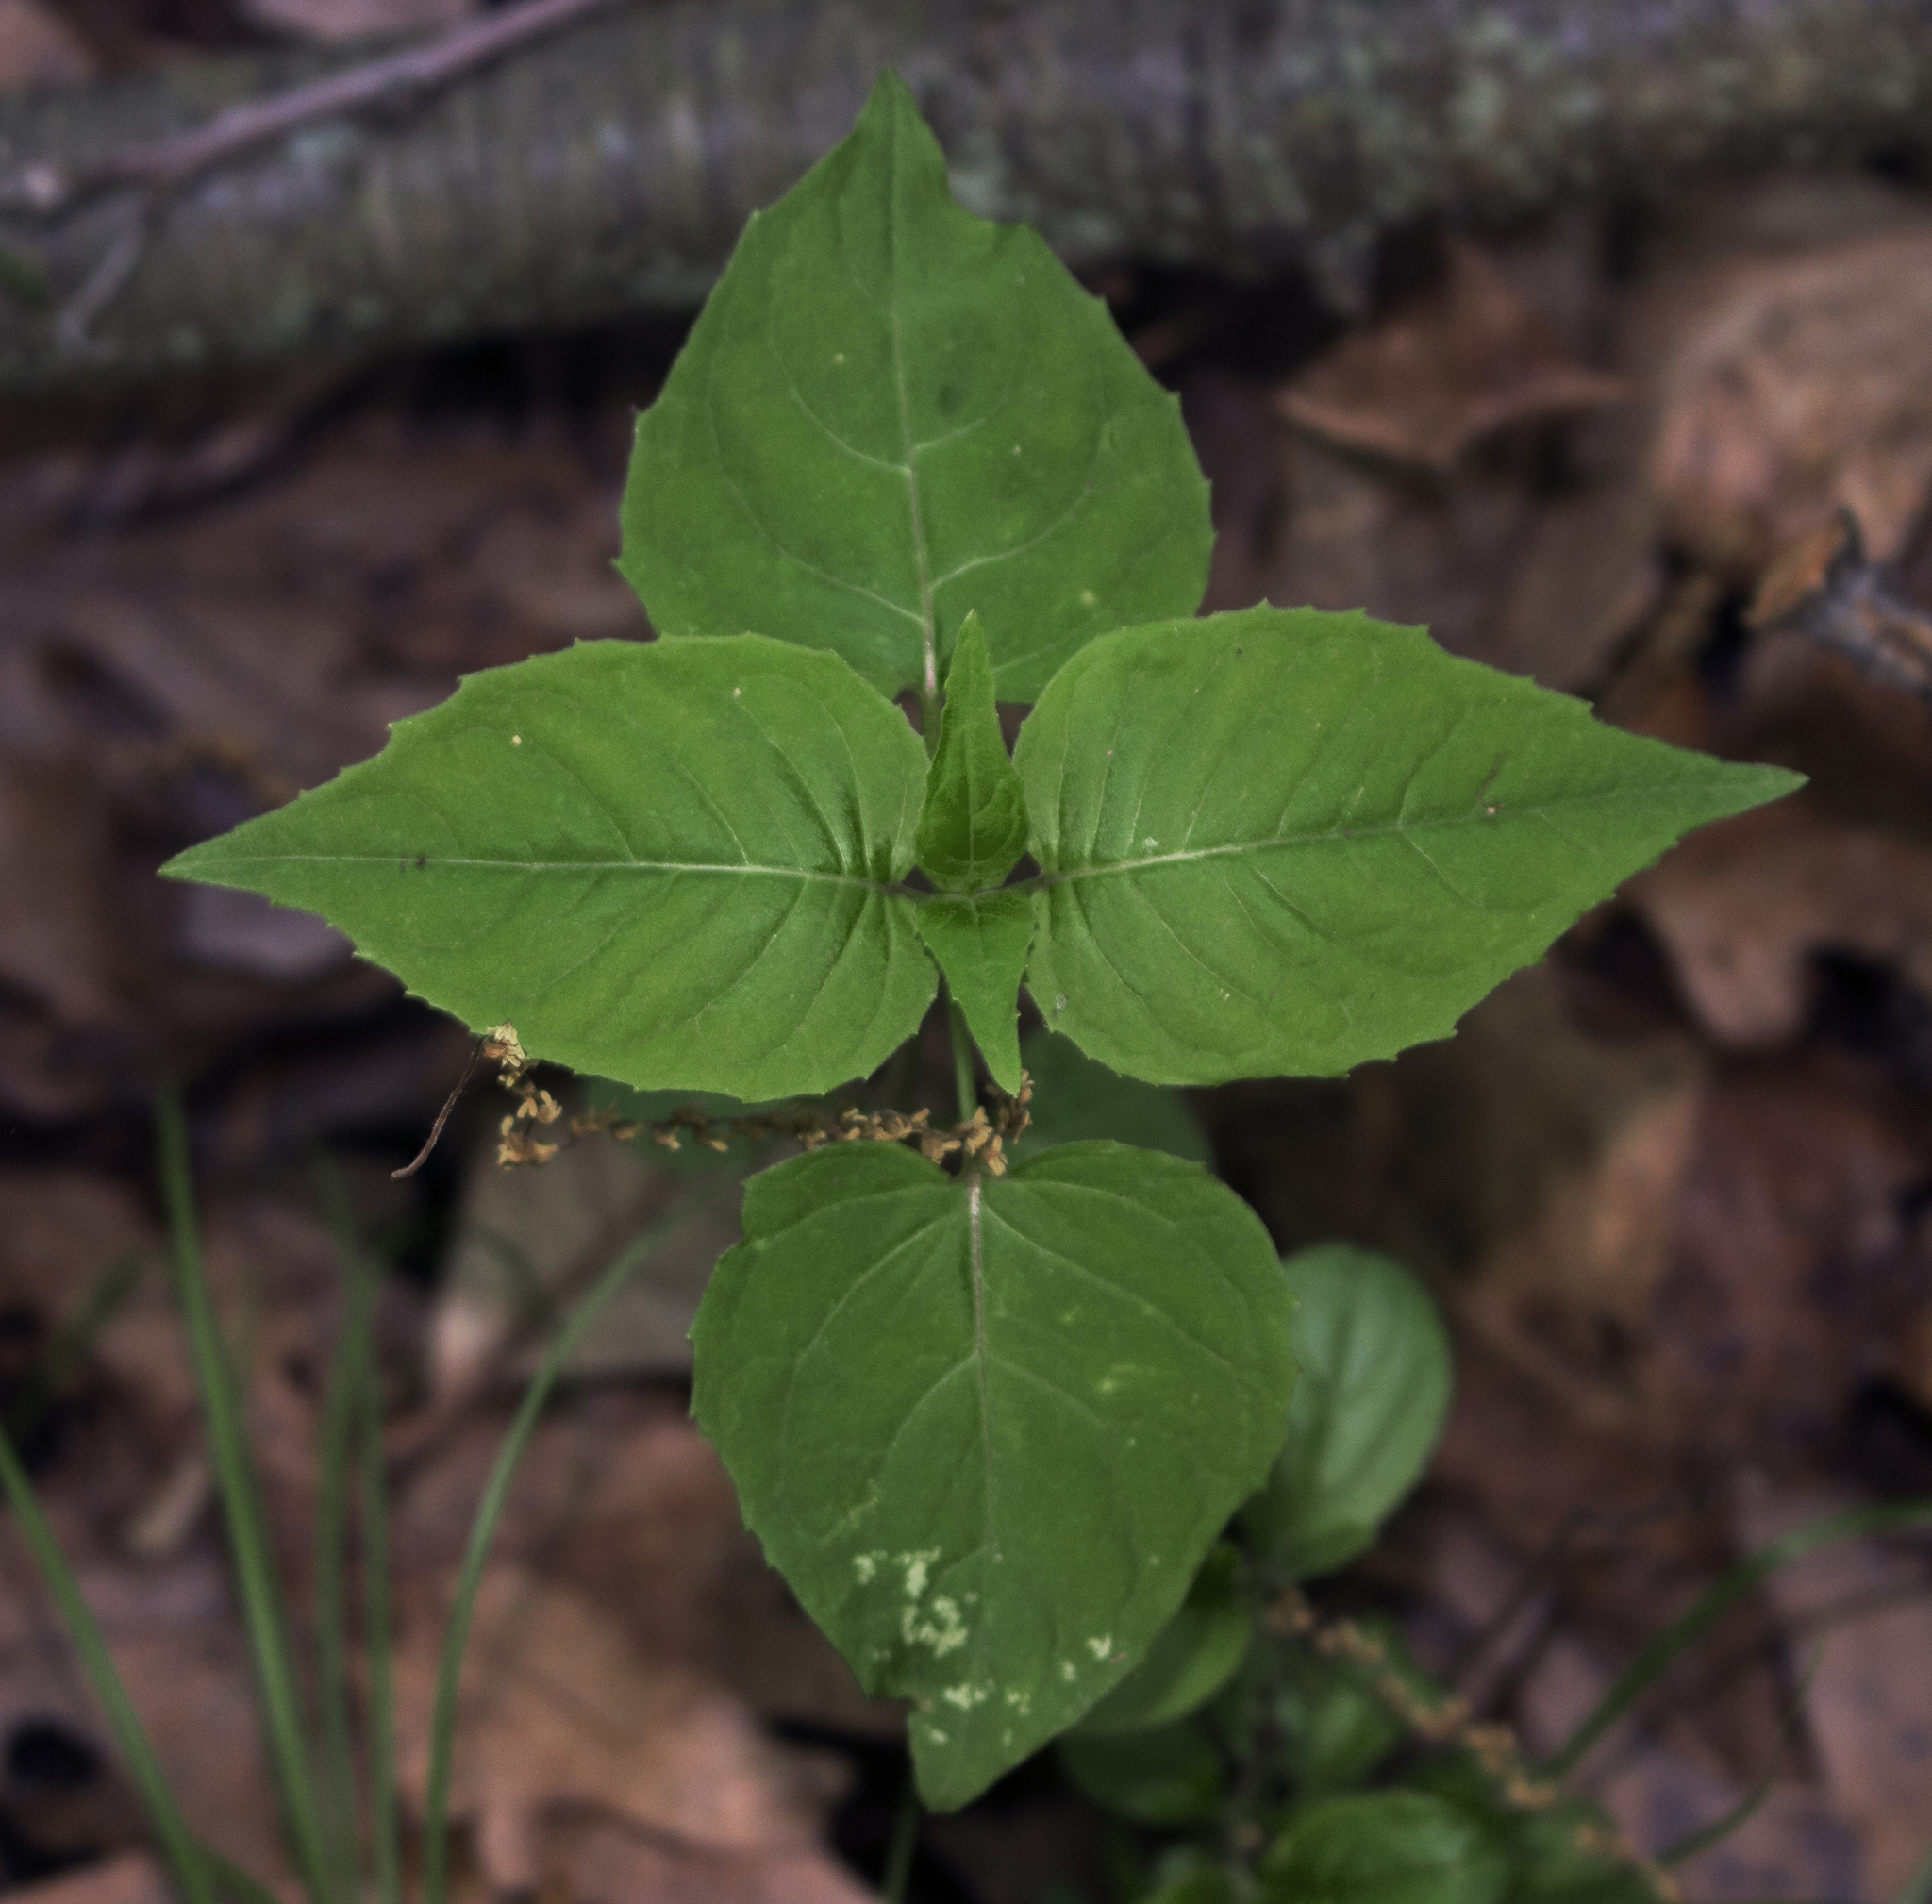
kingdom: Plantae
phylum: Tracheophyta
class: Magnoliopsida
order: Myrtales
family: Onagraceae
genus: Circaea
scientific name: Circaea canadensis
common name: Broad-leaved enchanter's nightshade
